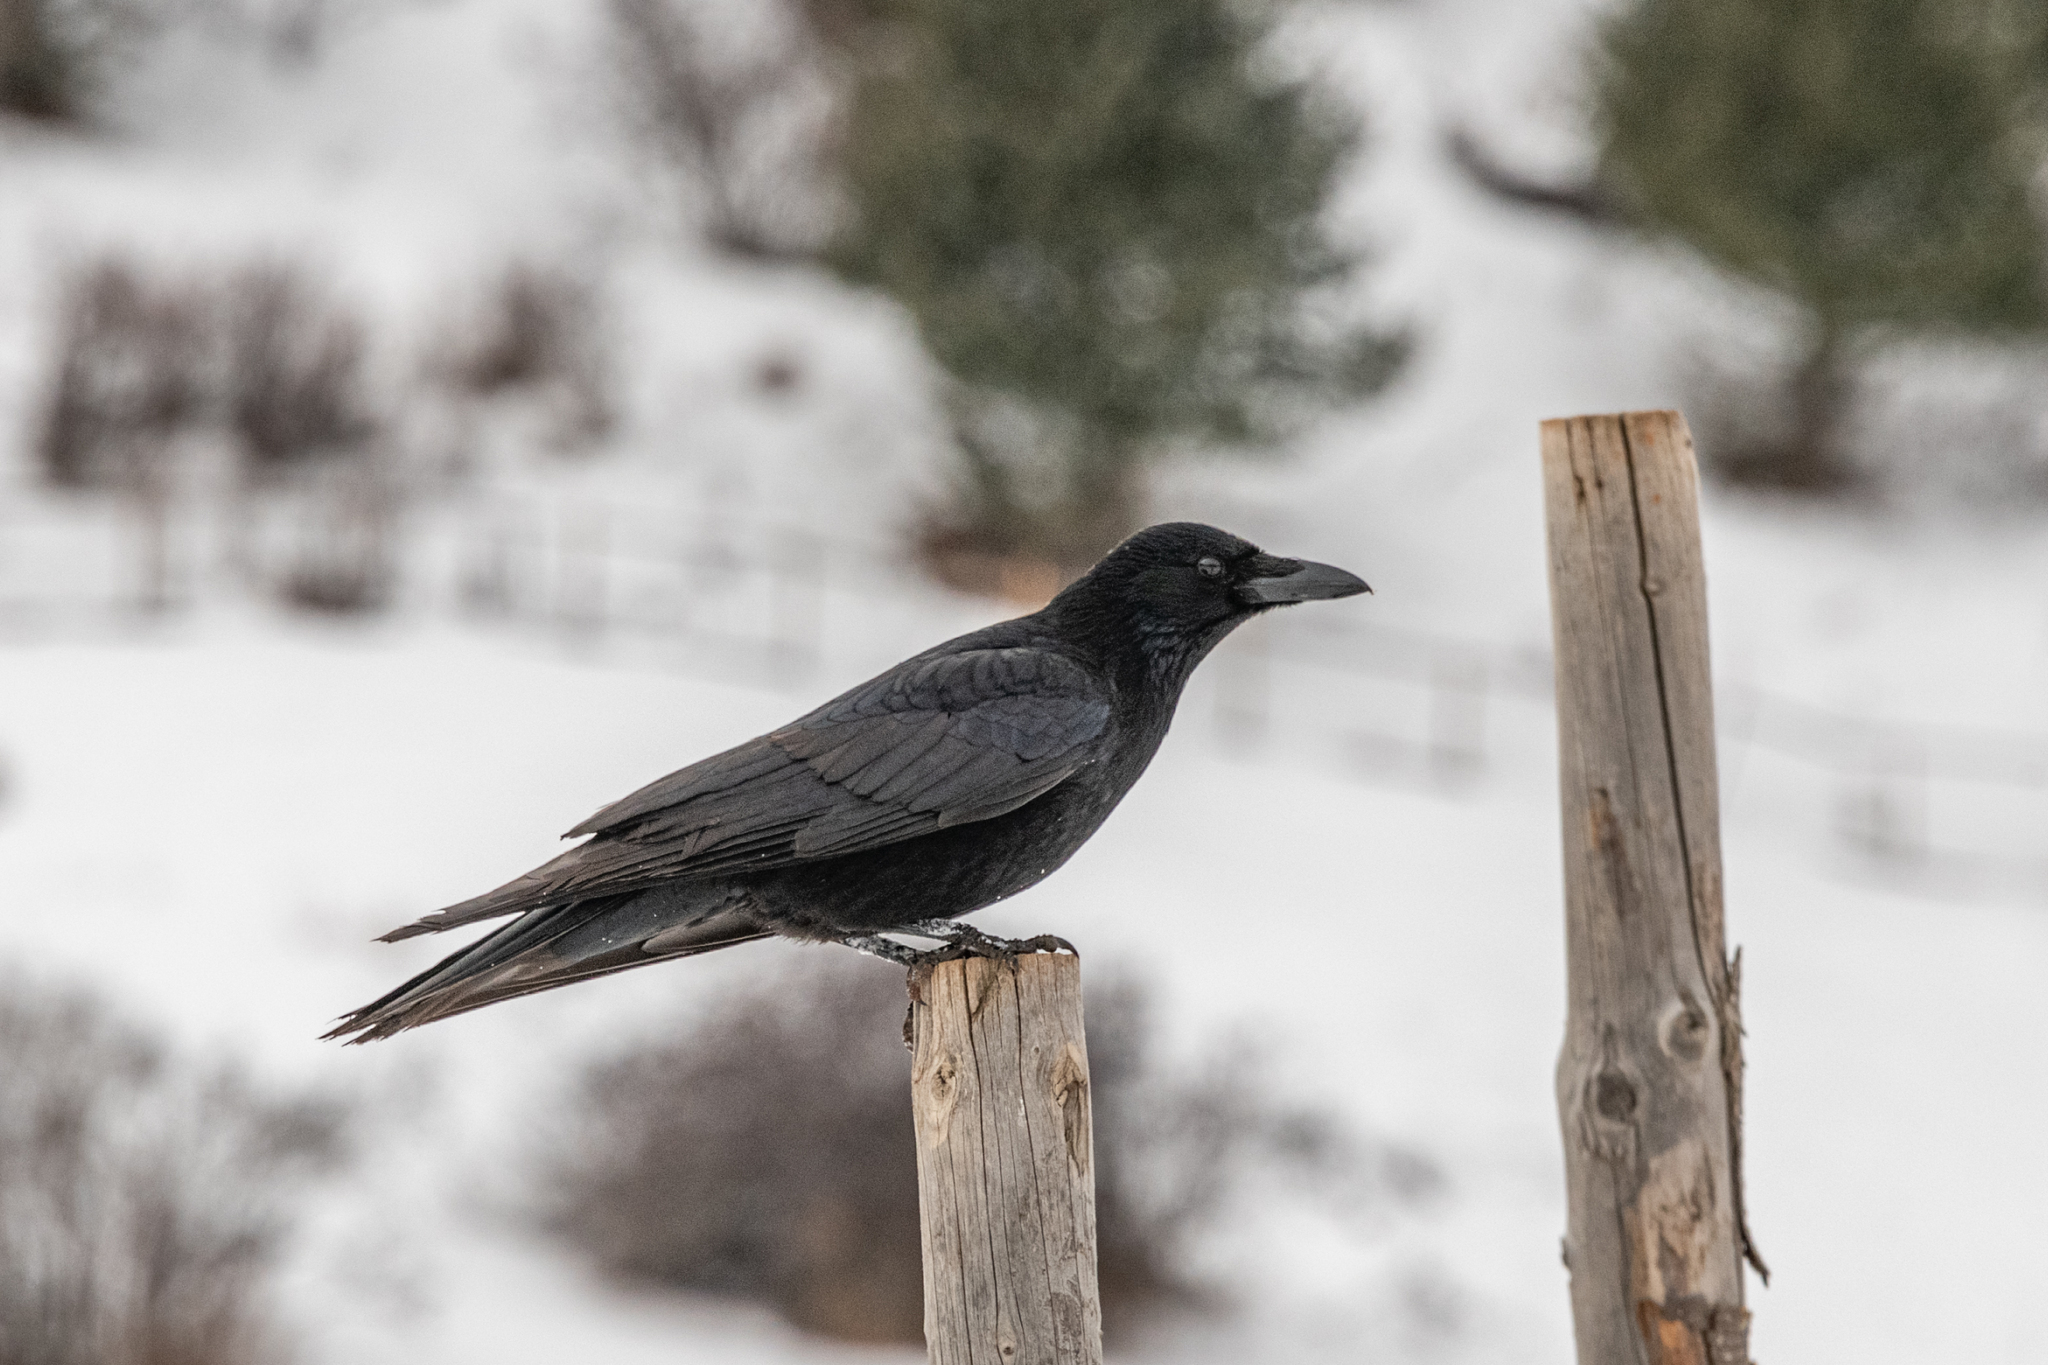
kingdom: Animalia
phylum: Chordata
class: Aves
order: Passeriformes
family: Corvidae
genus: Corvus
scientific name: Corvus corone
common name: Carrion crow
